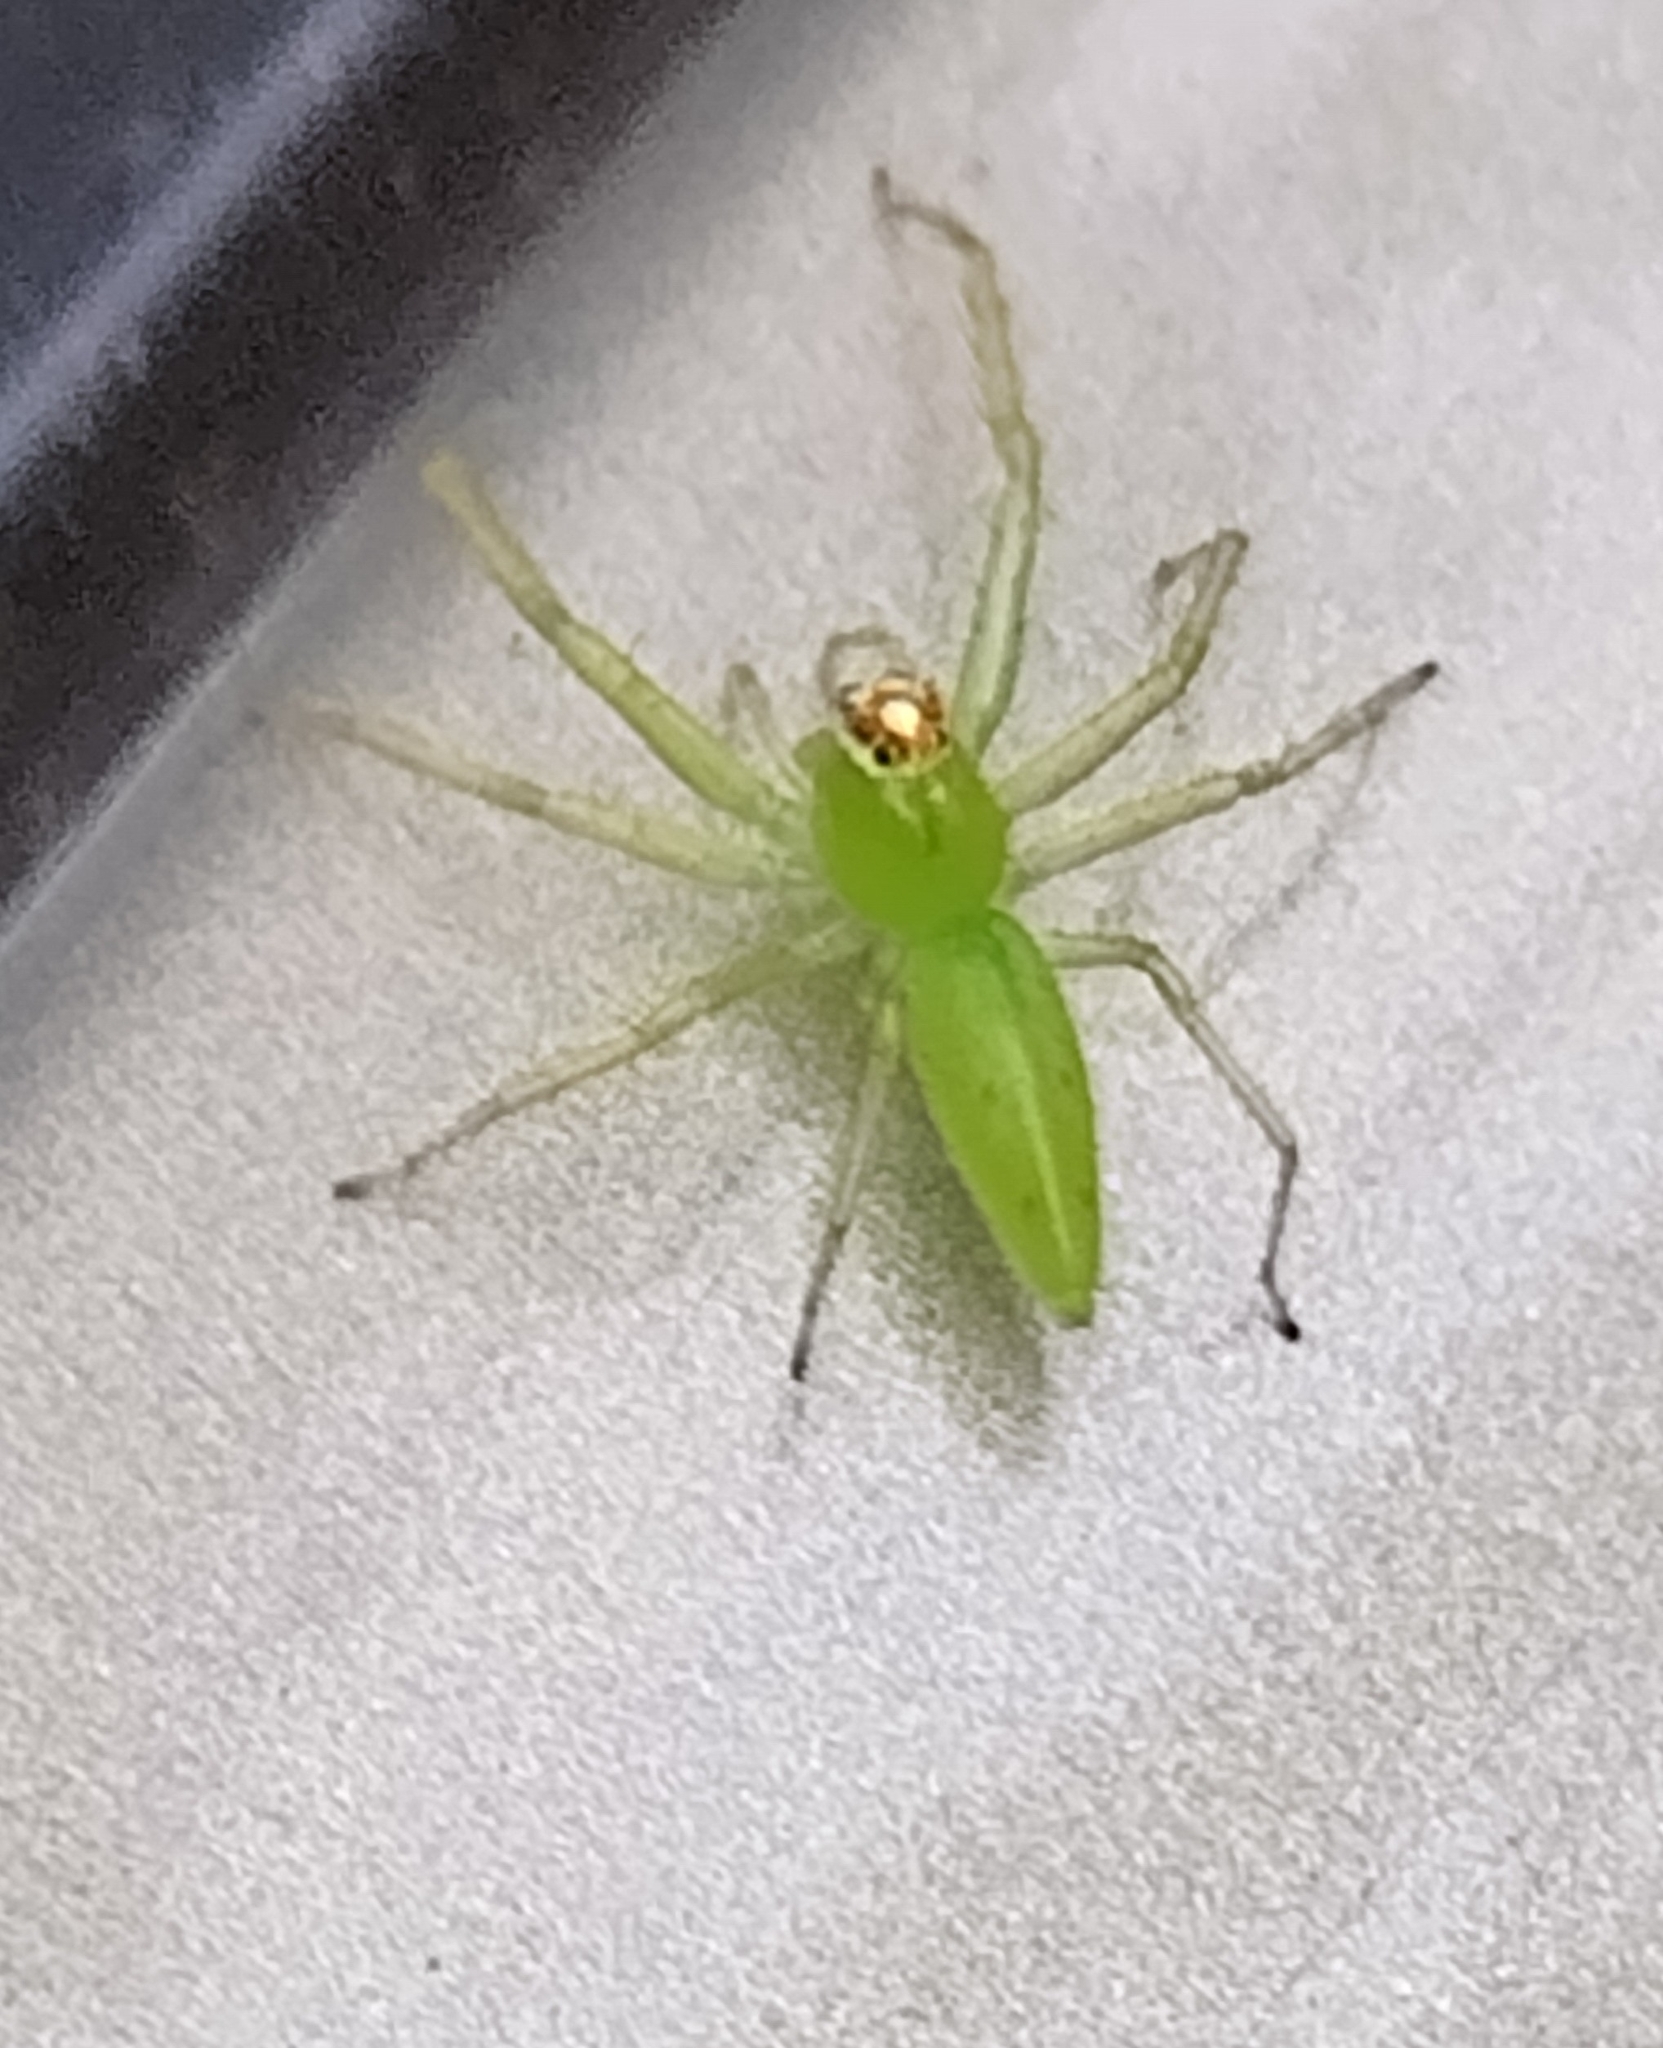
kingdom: Animalia
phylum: Arthropoda
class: Arachnida
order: Araneae
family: Salticidae
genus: Lyssomanes
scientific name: Lyssomanes viridis
